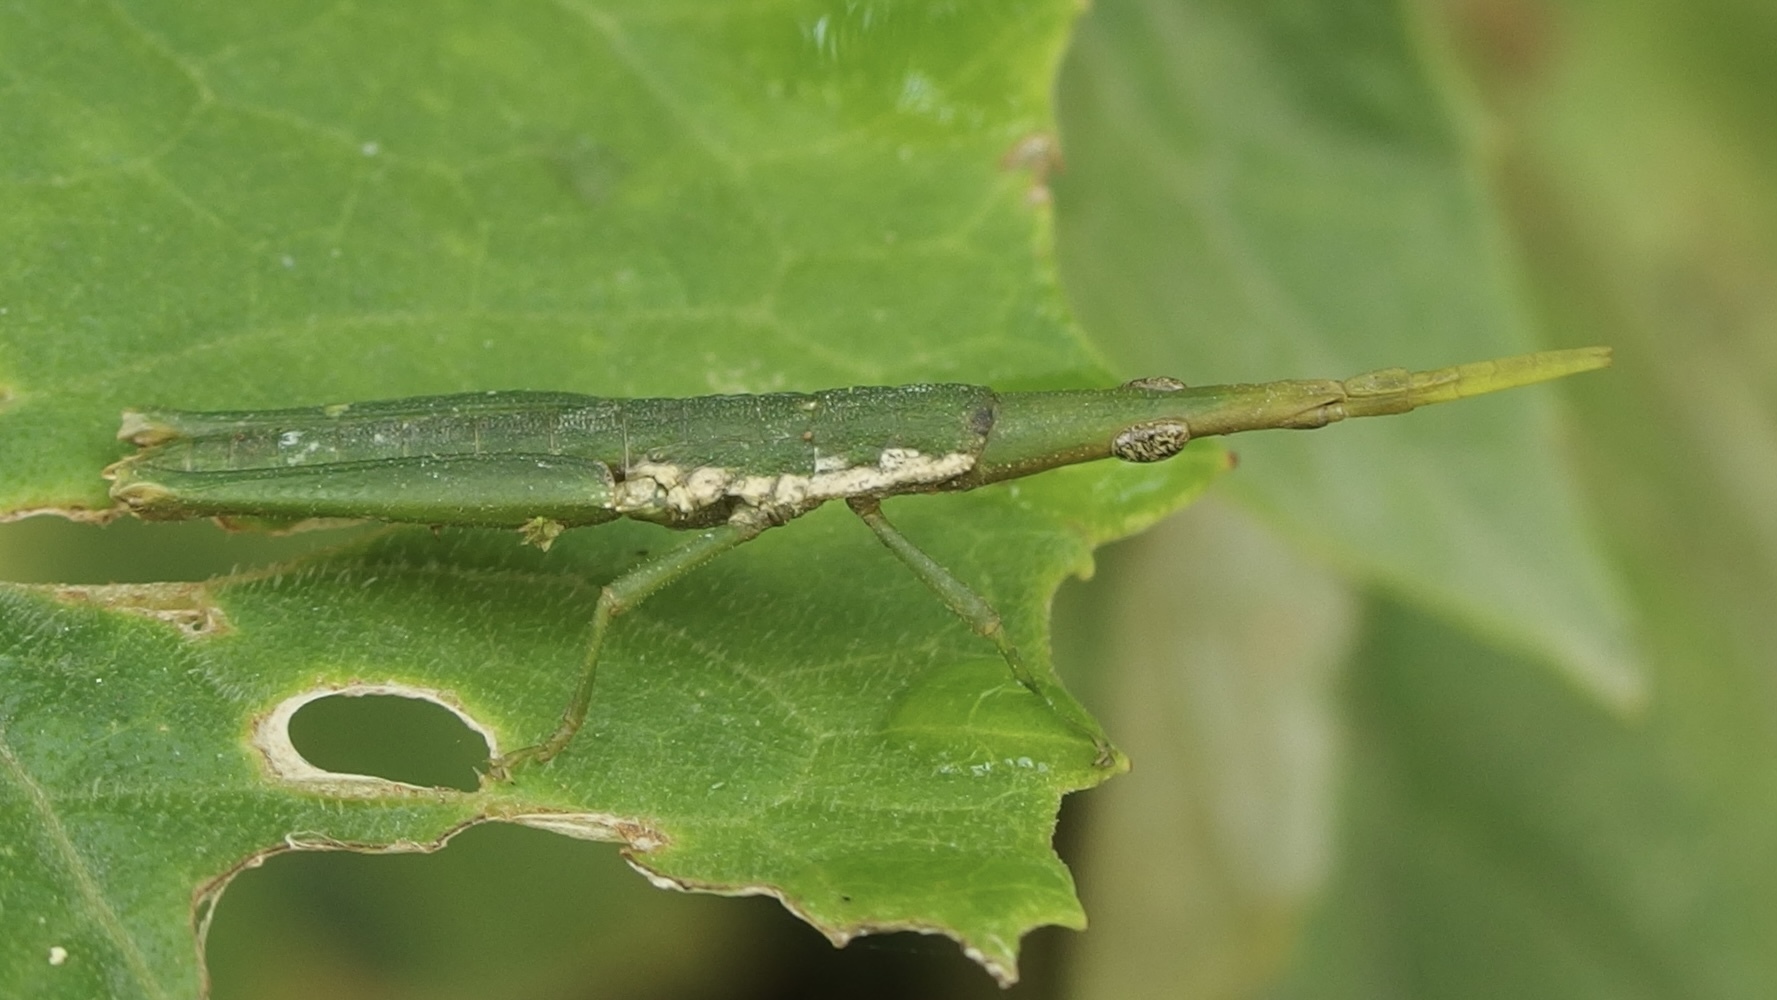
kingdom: Animalia
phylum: Arthropoda
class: Insecta
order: Orthoptera
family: Pyrgomorphidae
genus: Omura
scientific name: Omura congrua
